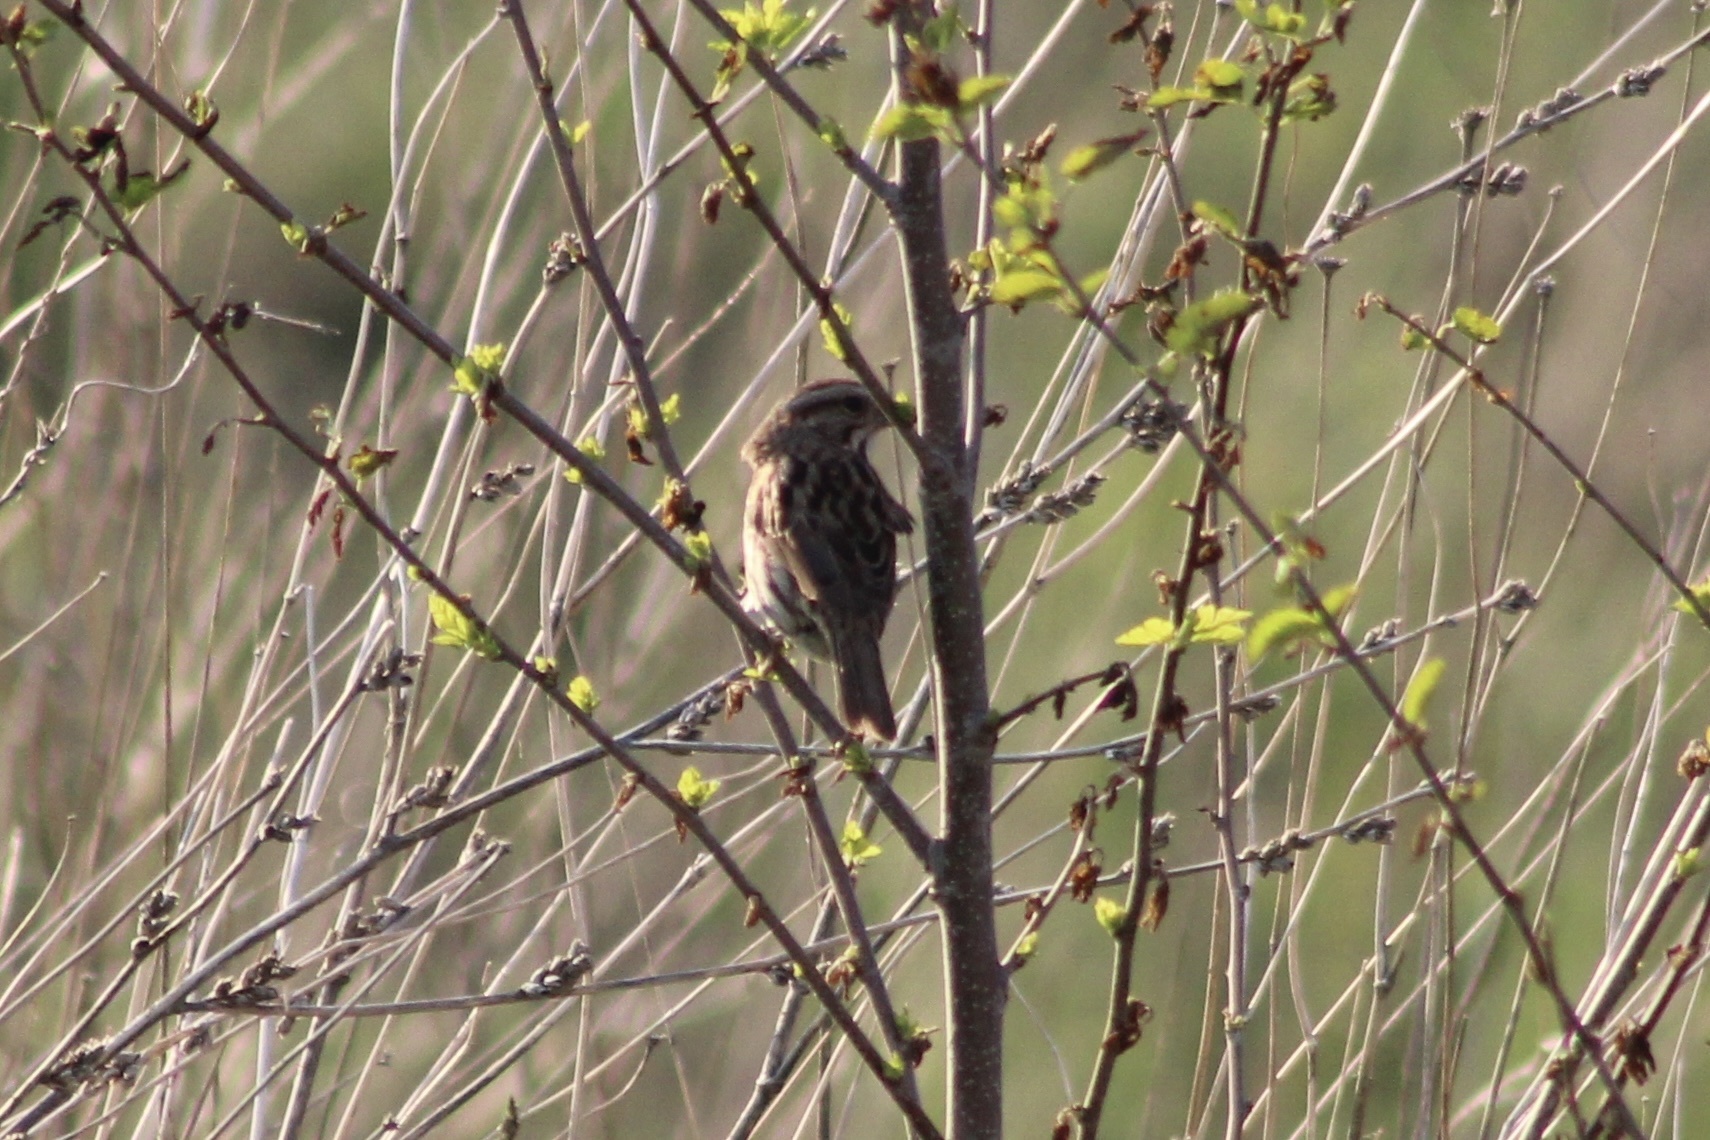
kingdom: Animalia
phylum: Chordata
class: Aves
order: Passeriformes
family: Passerellidae
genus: Melospiza
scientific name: Melospiza melodia
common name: Song sparrow
